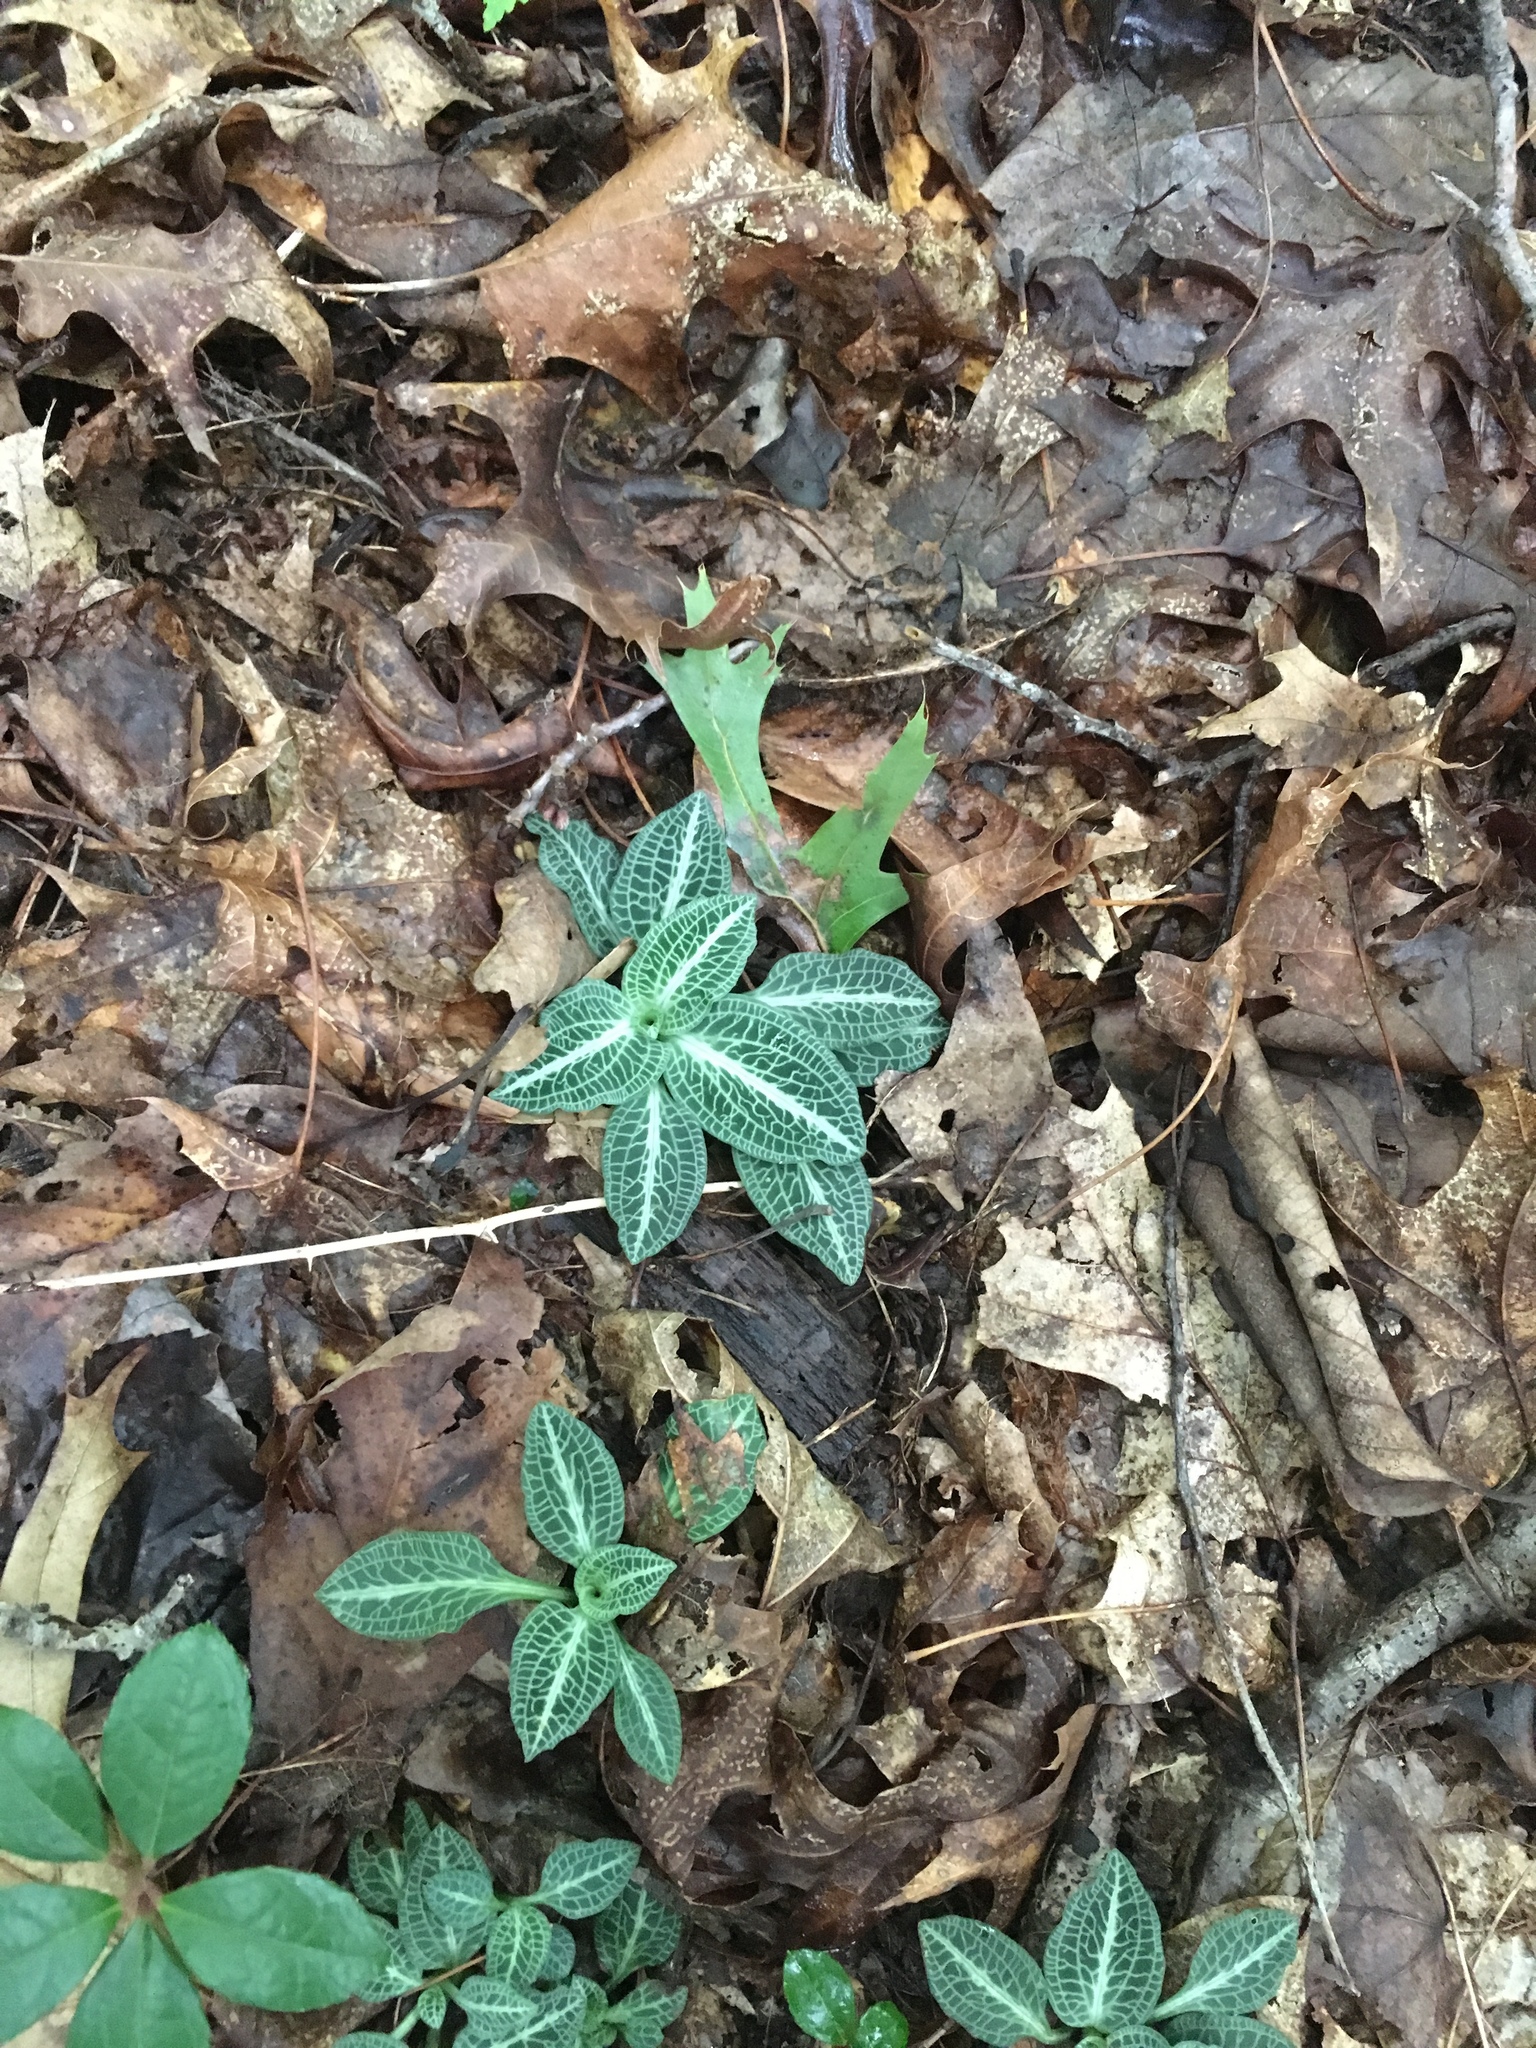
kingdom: Plantae
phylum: Tracheophyta
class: Liliopsida
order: Asparagales
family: Orchidaceae
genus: Goodyera
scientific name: Goodyera pubescens
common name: Downy rattlesnake-plantain
